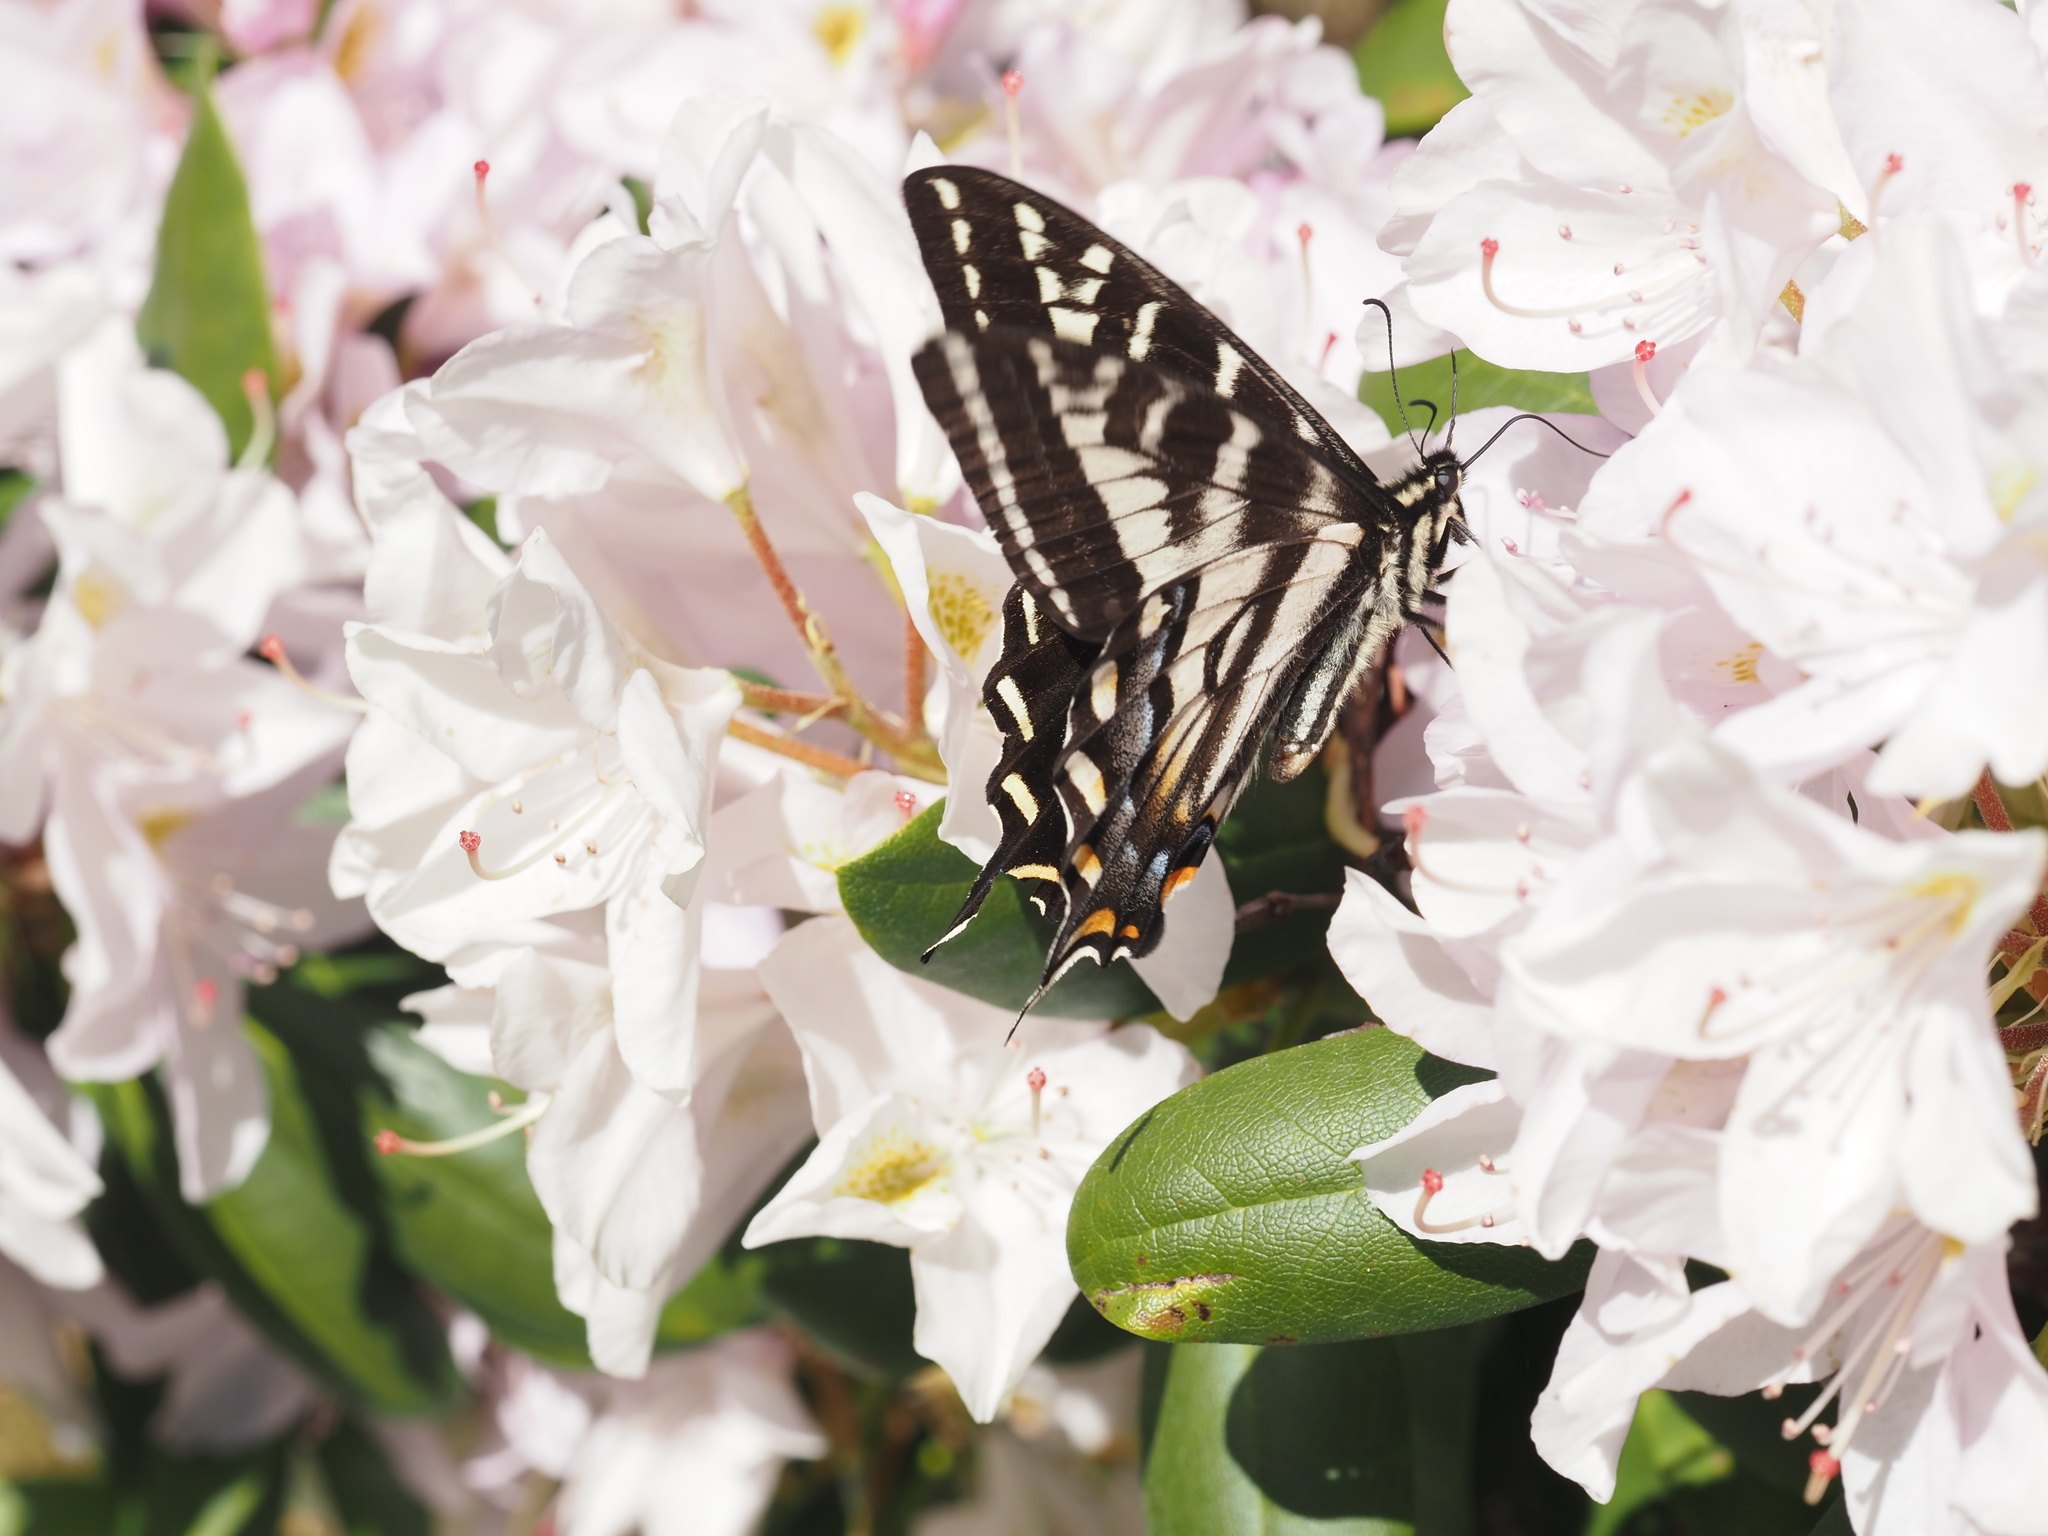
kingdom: Animalia
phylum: Arthropoda
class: Insecta
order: Lepidoptera
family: Papilionidae
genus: Papilio
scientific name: Papilio eurymedon
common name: Pale tiger swallowtail
